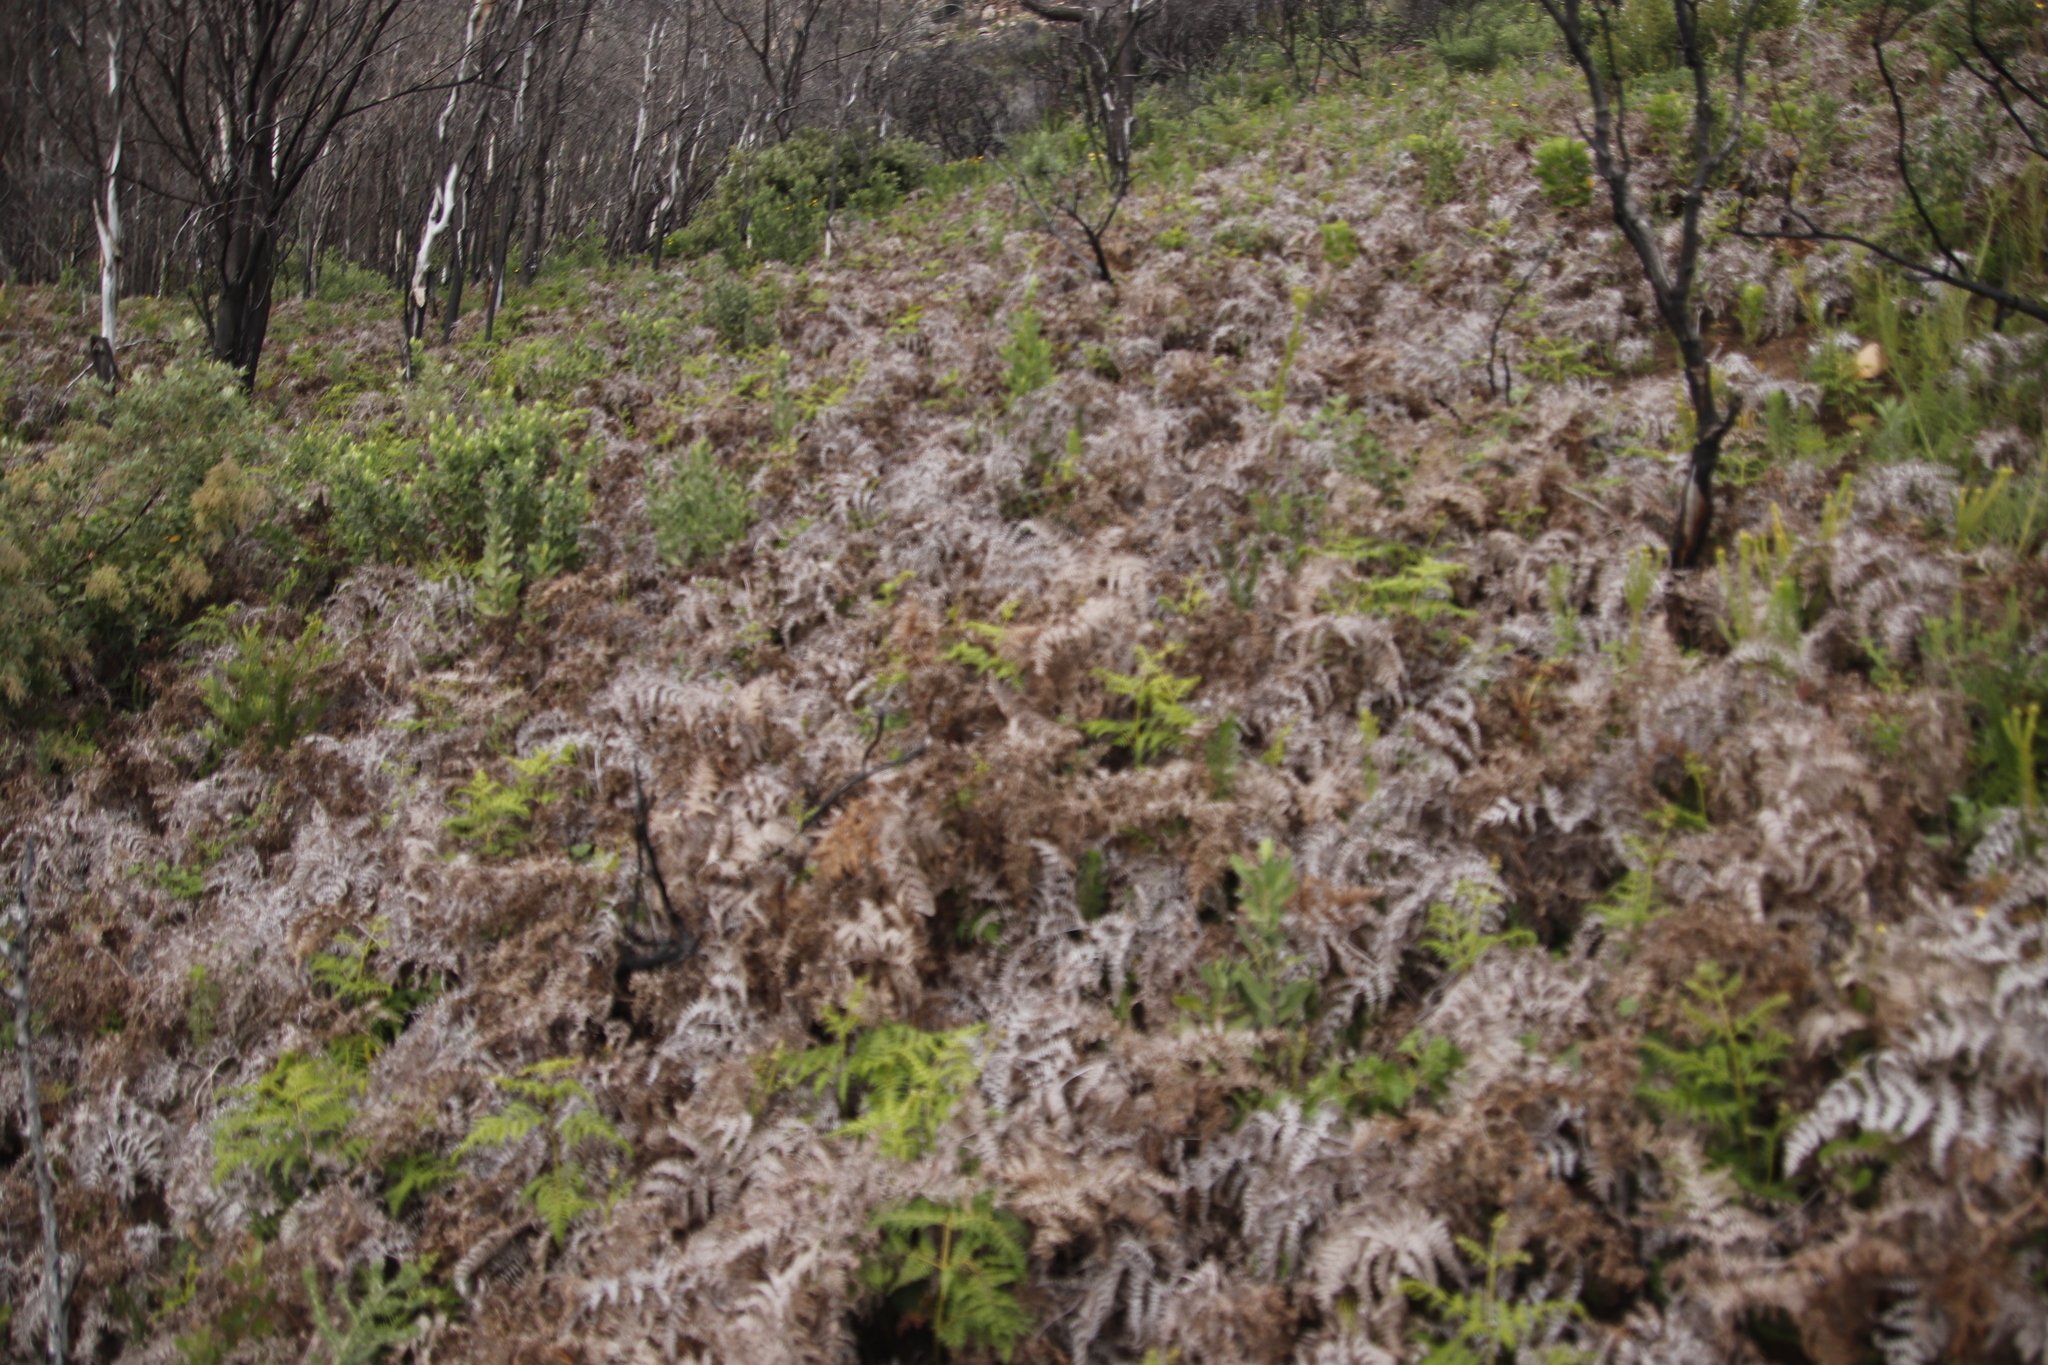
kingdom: Plantae
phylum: Tracheophyta
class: Polypodiopsida
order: Polypodiales
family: Dennstaedtiaceae
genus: Pteridium
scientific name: Pteridium aquilinum
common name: Bracken
